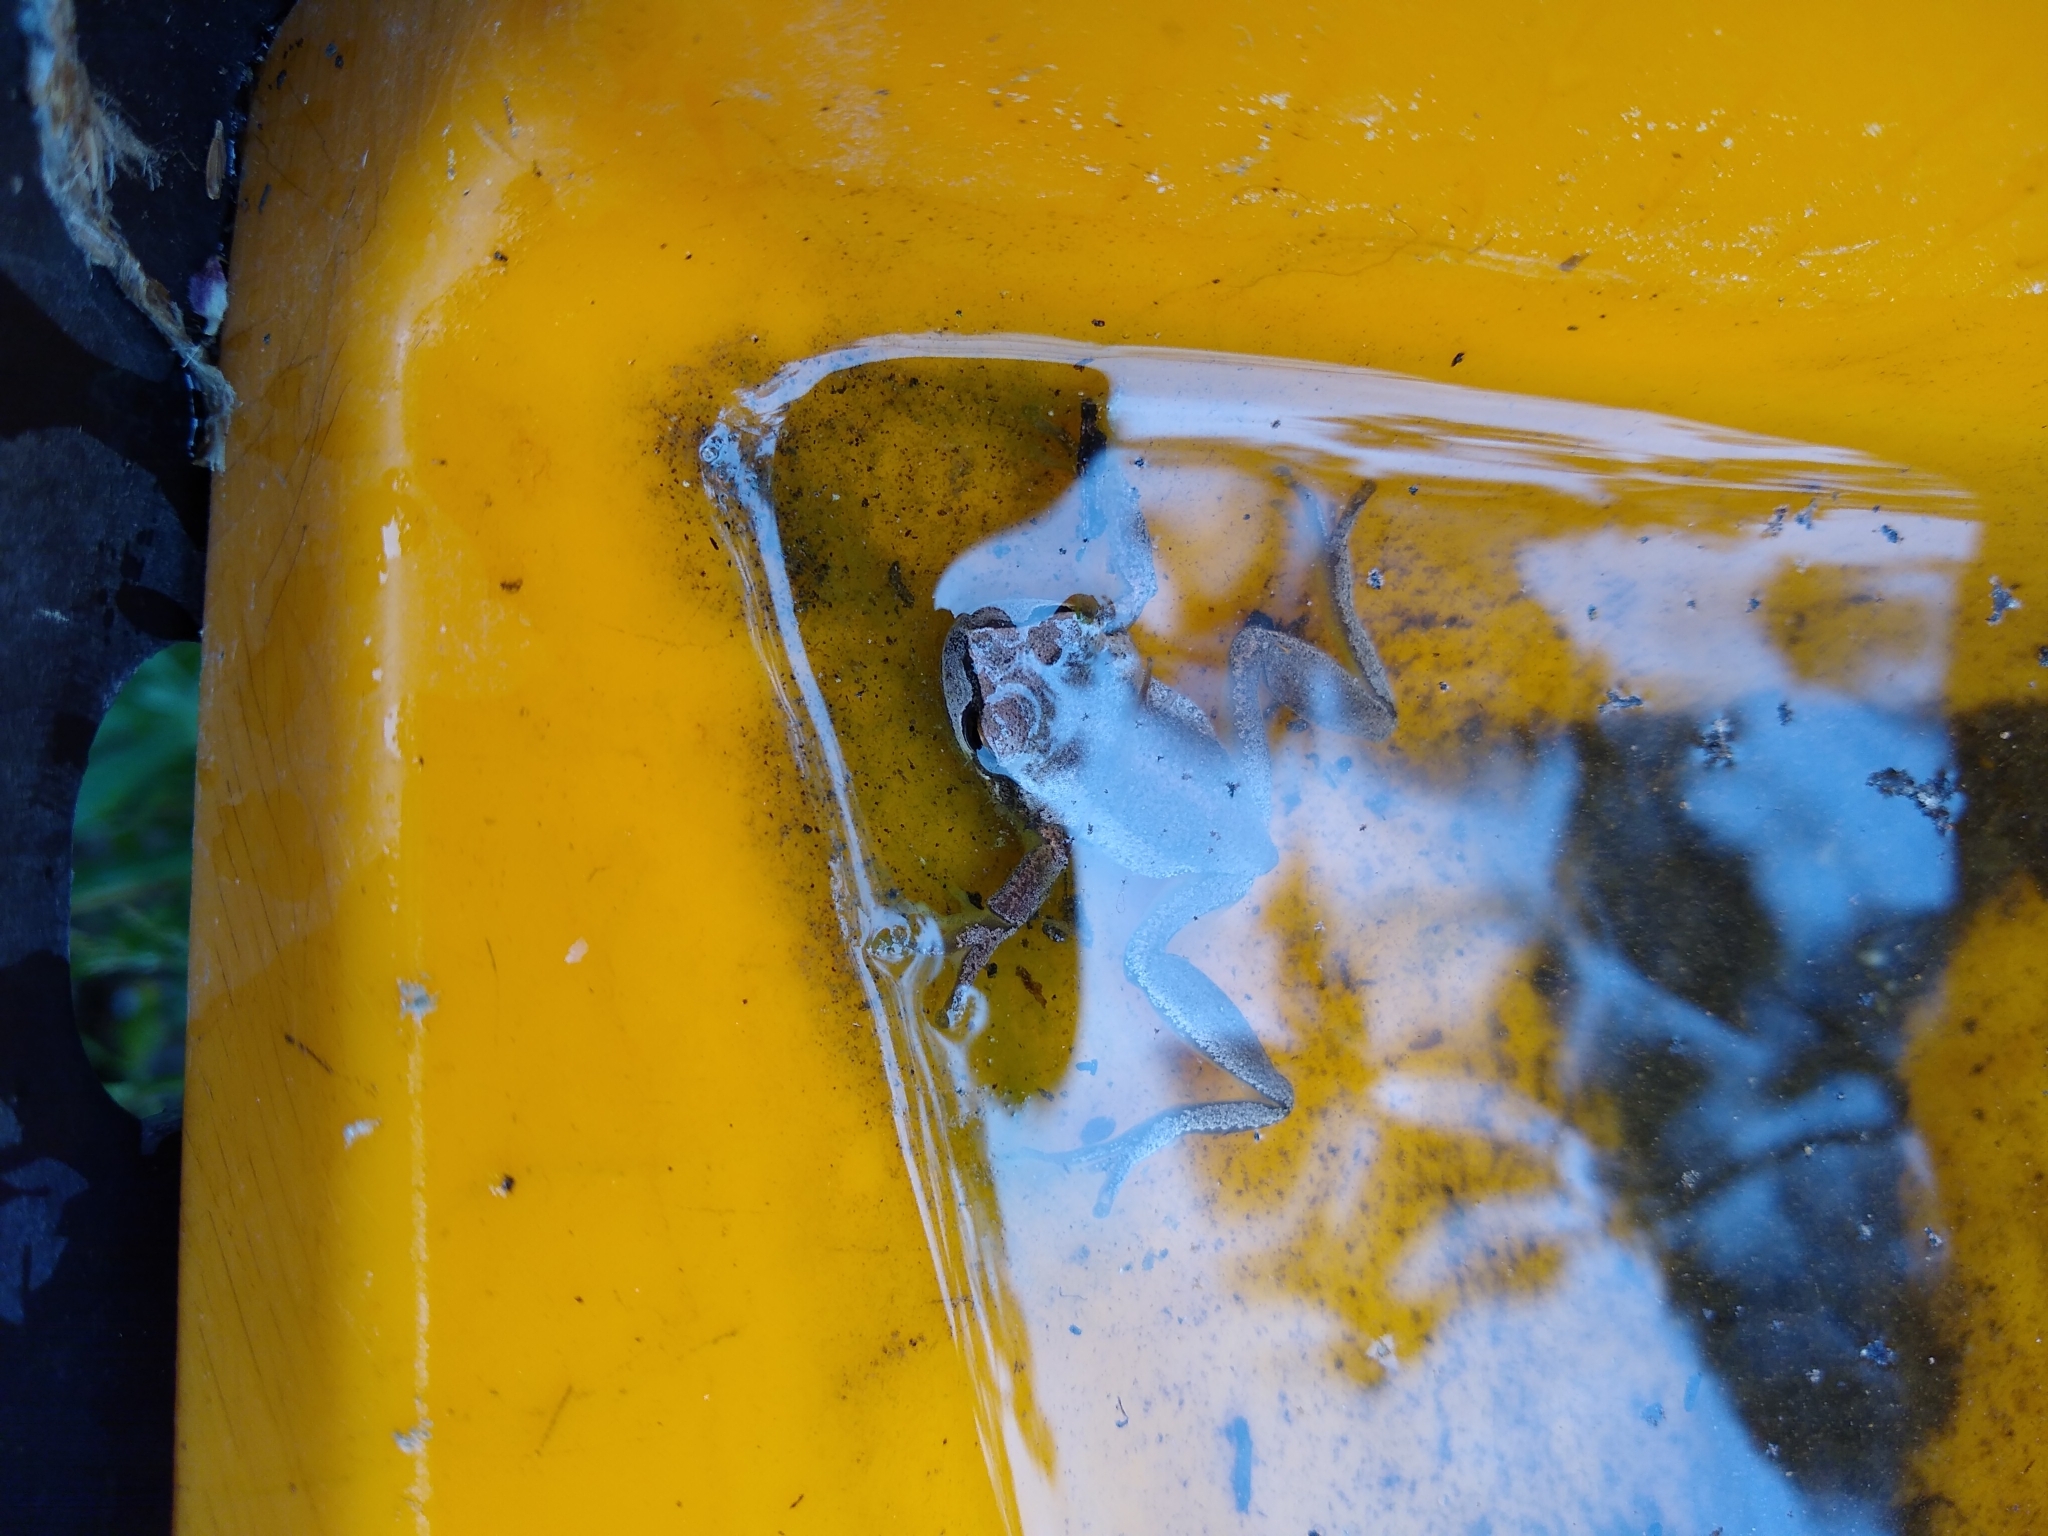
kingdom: Animalia
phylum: Chordata
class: Amphibia
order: Anura
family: Pelodryadidae
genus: Litoria
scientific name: Litoria ewingii
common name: Southern brown tree frog
